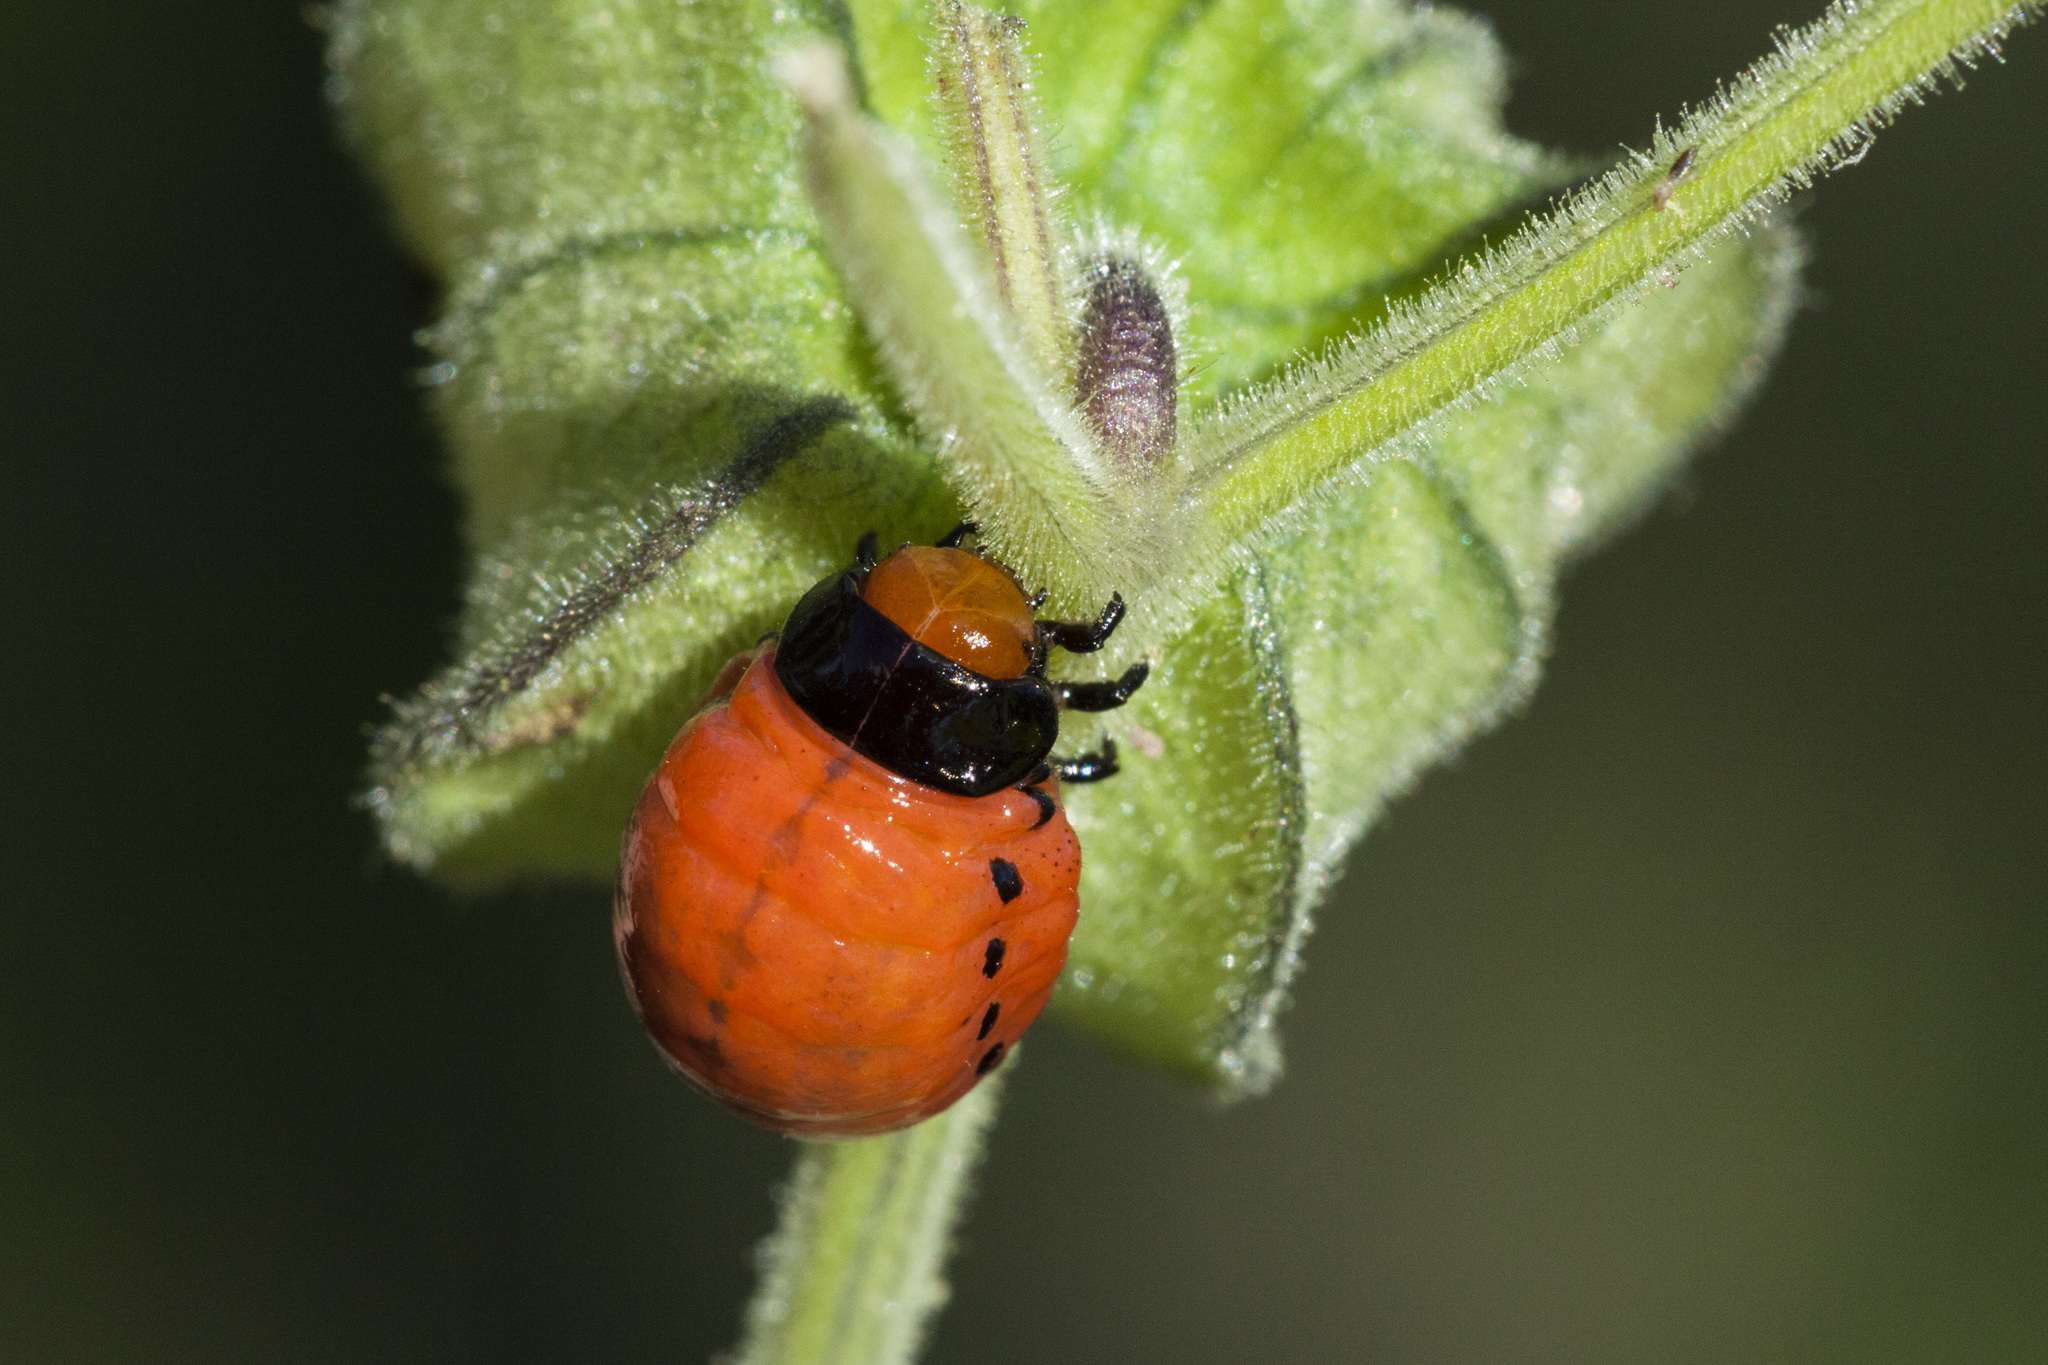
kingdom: Animalia
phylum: Arthropoda
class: Insecta
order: Coleoptera
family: Chrysomelidae
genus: Leptinotarsa
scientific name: Leptinotarsa rubiginosa
